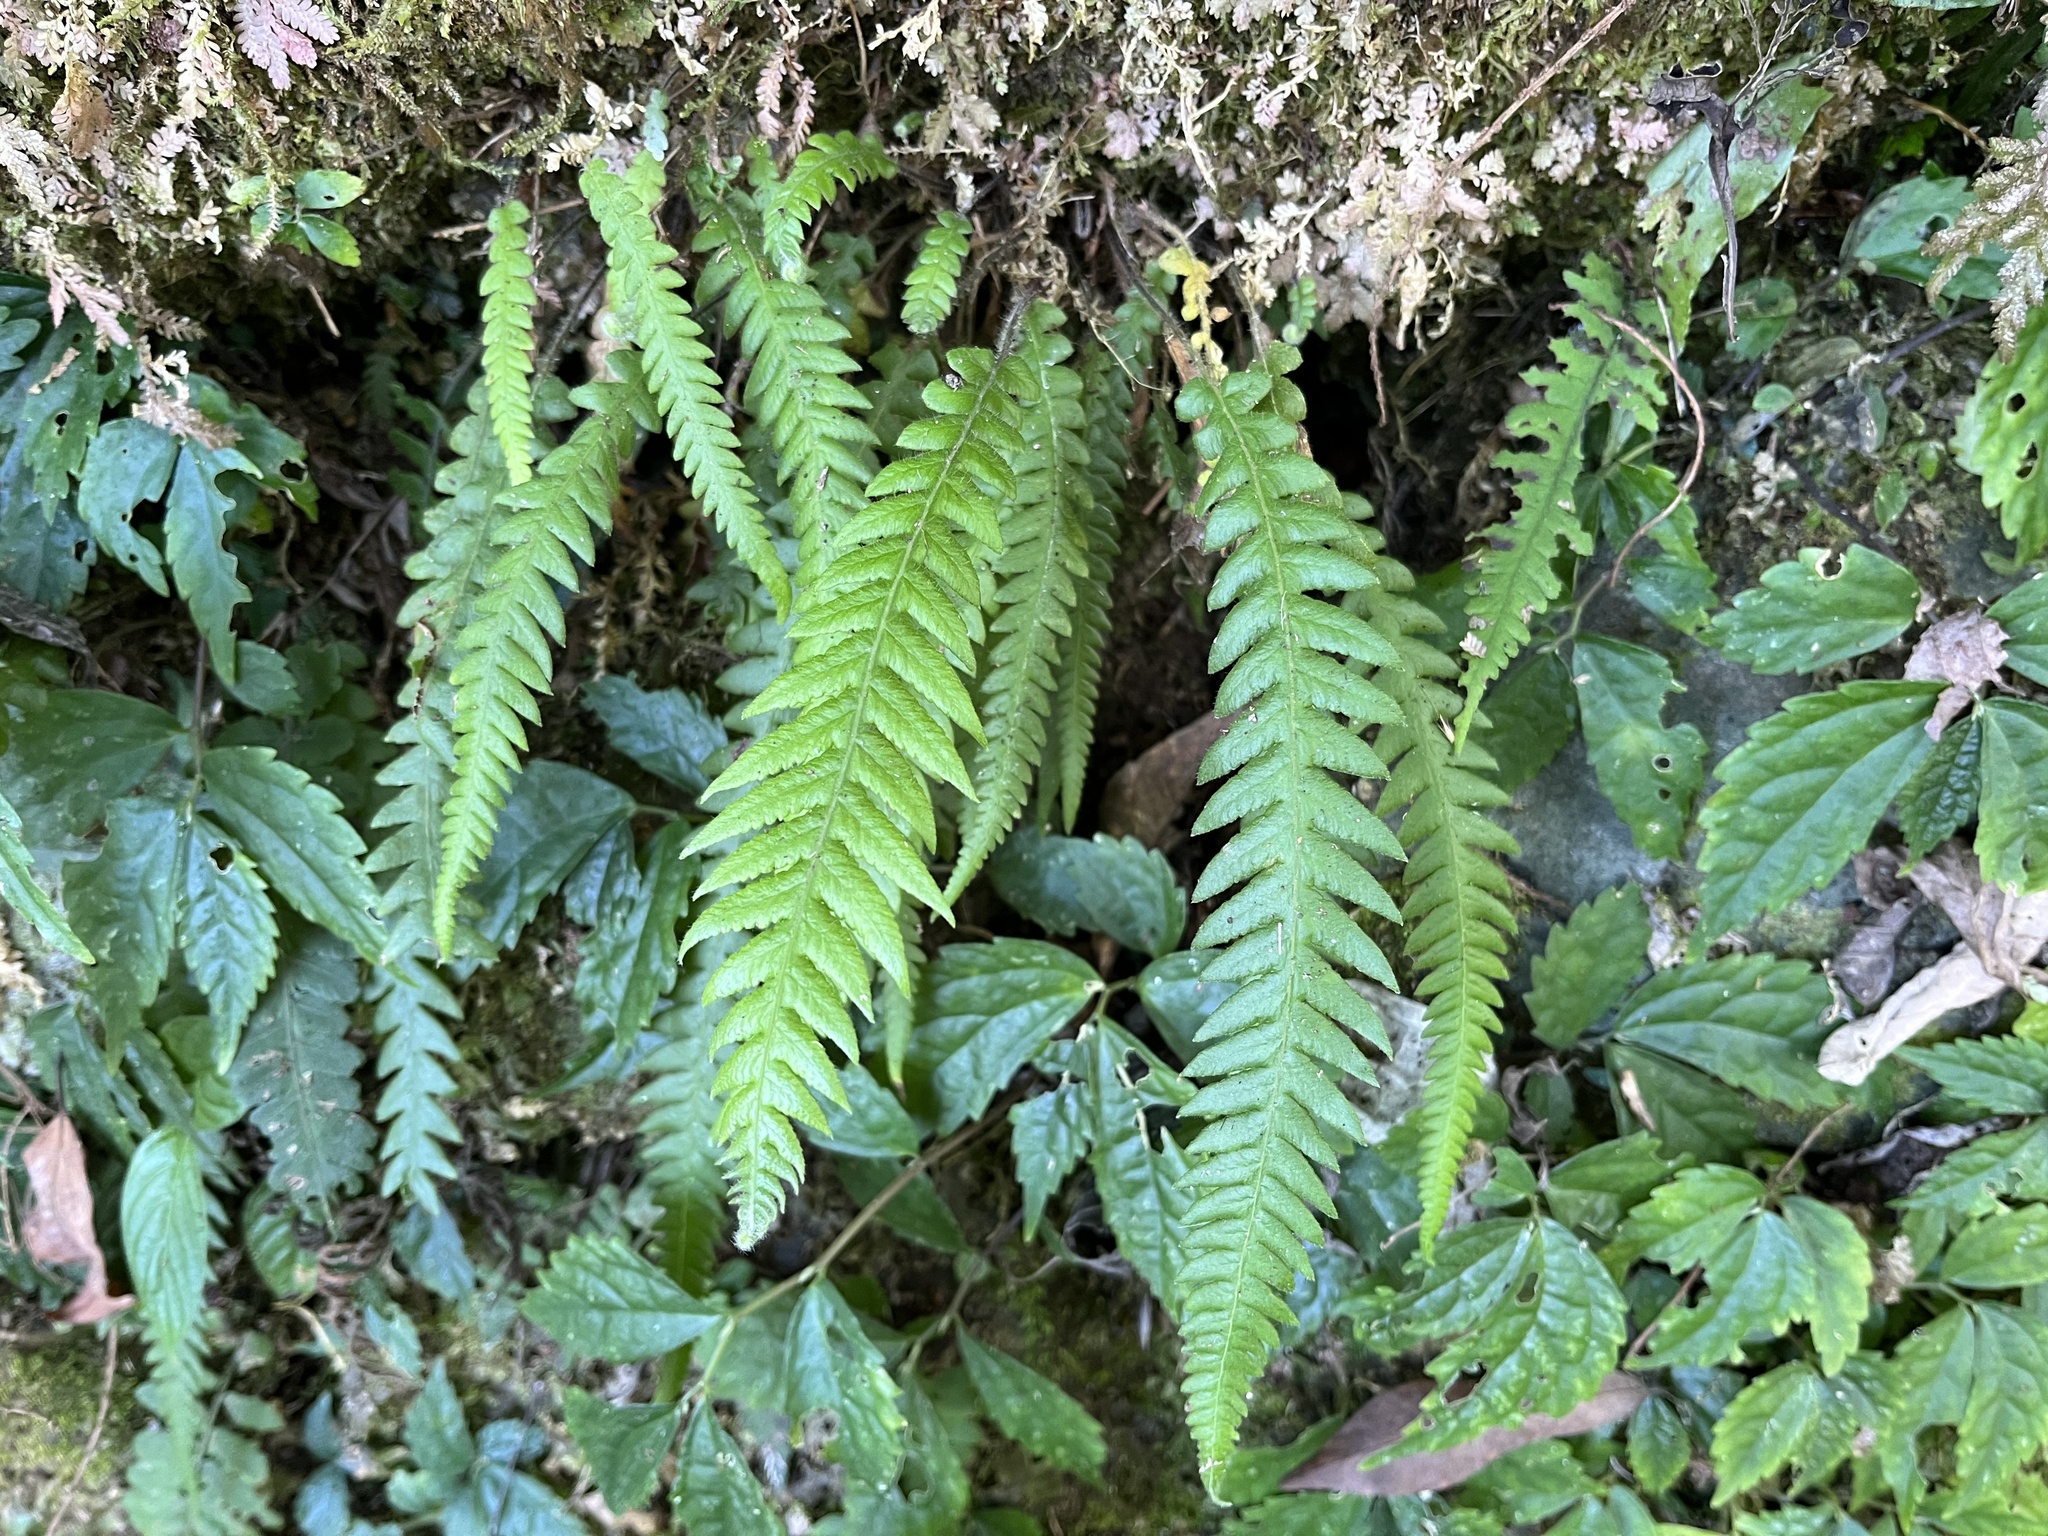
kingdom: Plantae
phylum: Tracheophyta
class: Polypodiopsida
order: Polypodiales
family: Thelypteridaceae
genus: Phegopteris
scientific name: Phegopteris decursive-pinnata
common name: Japanese beech fern
